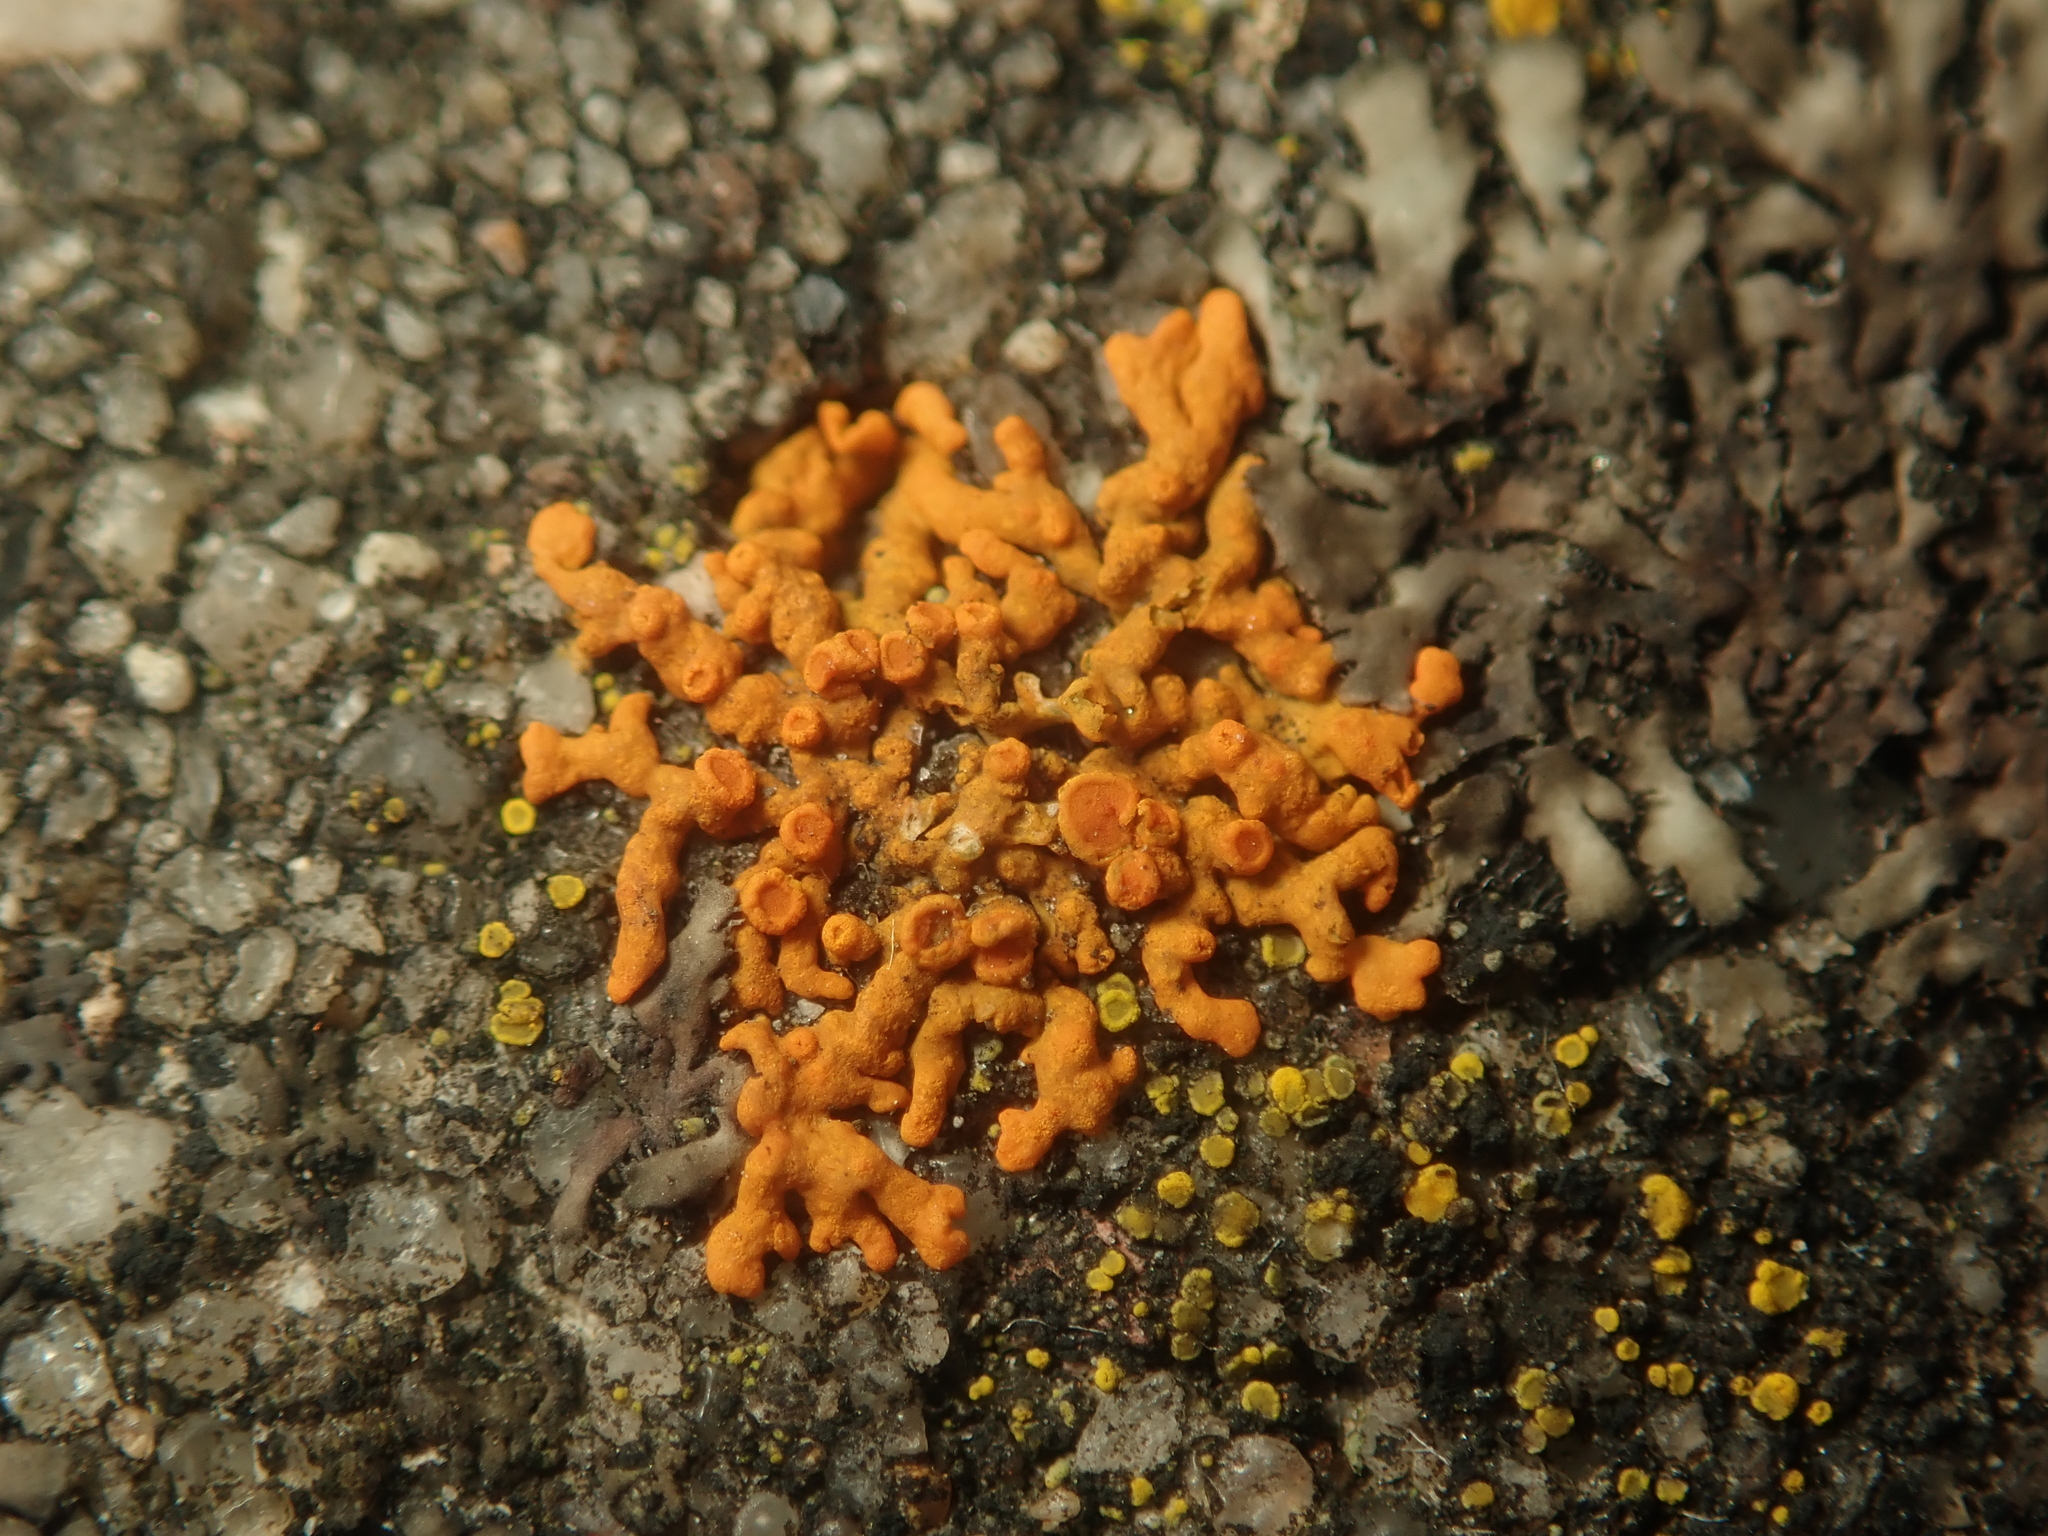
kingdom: Fungi
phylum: Ascomycota
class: Lecanoromycetes
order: Teloschistales
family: Teloschistaceae
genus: Xanthoria
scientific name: Xanthoria elegans
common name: Elegant sunburst lichen
